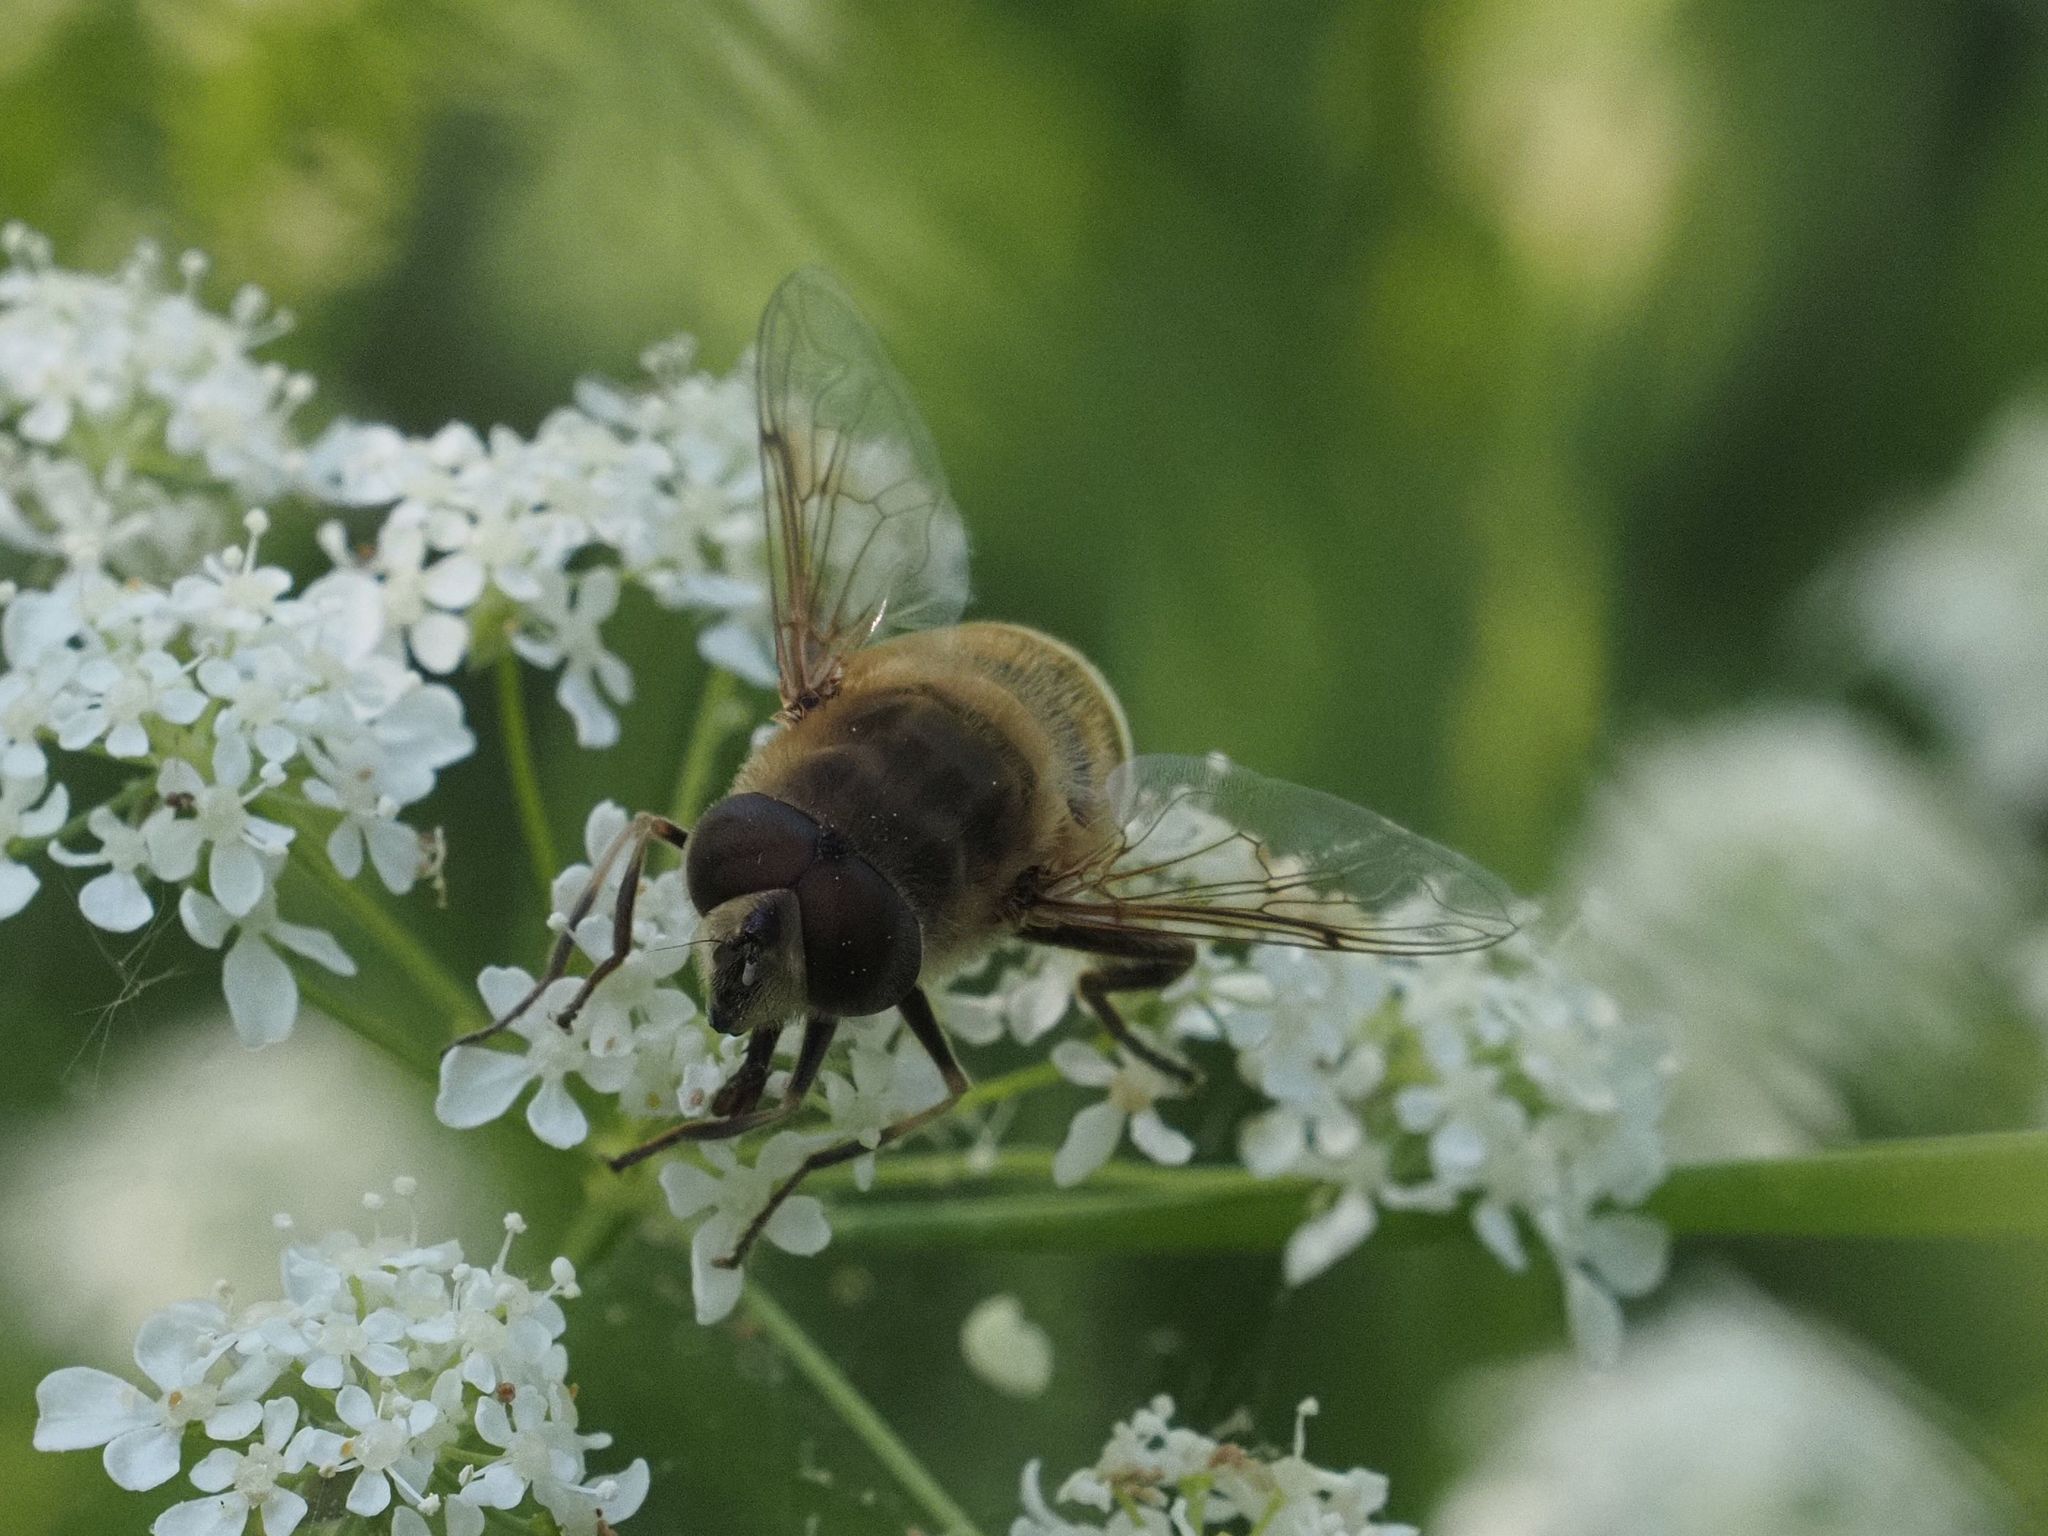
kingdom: Animalia
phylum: Arthropoda
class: Insecta
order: Diptera
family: Syrphidae
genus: Eristalis
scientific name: Eristalis tenax
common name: Drone fly
